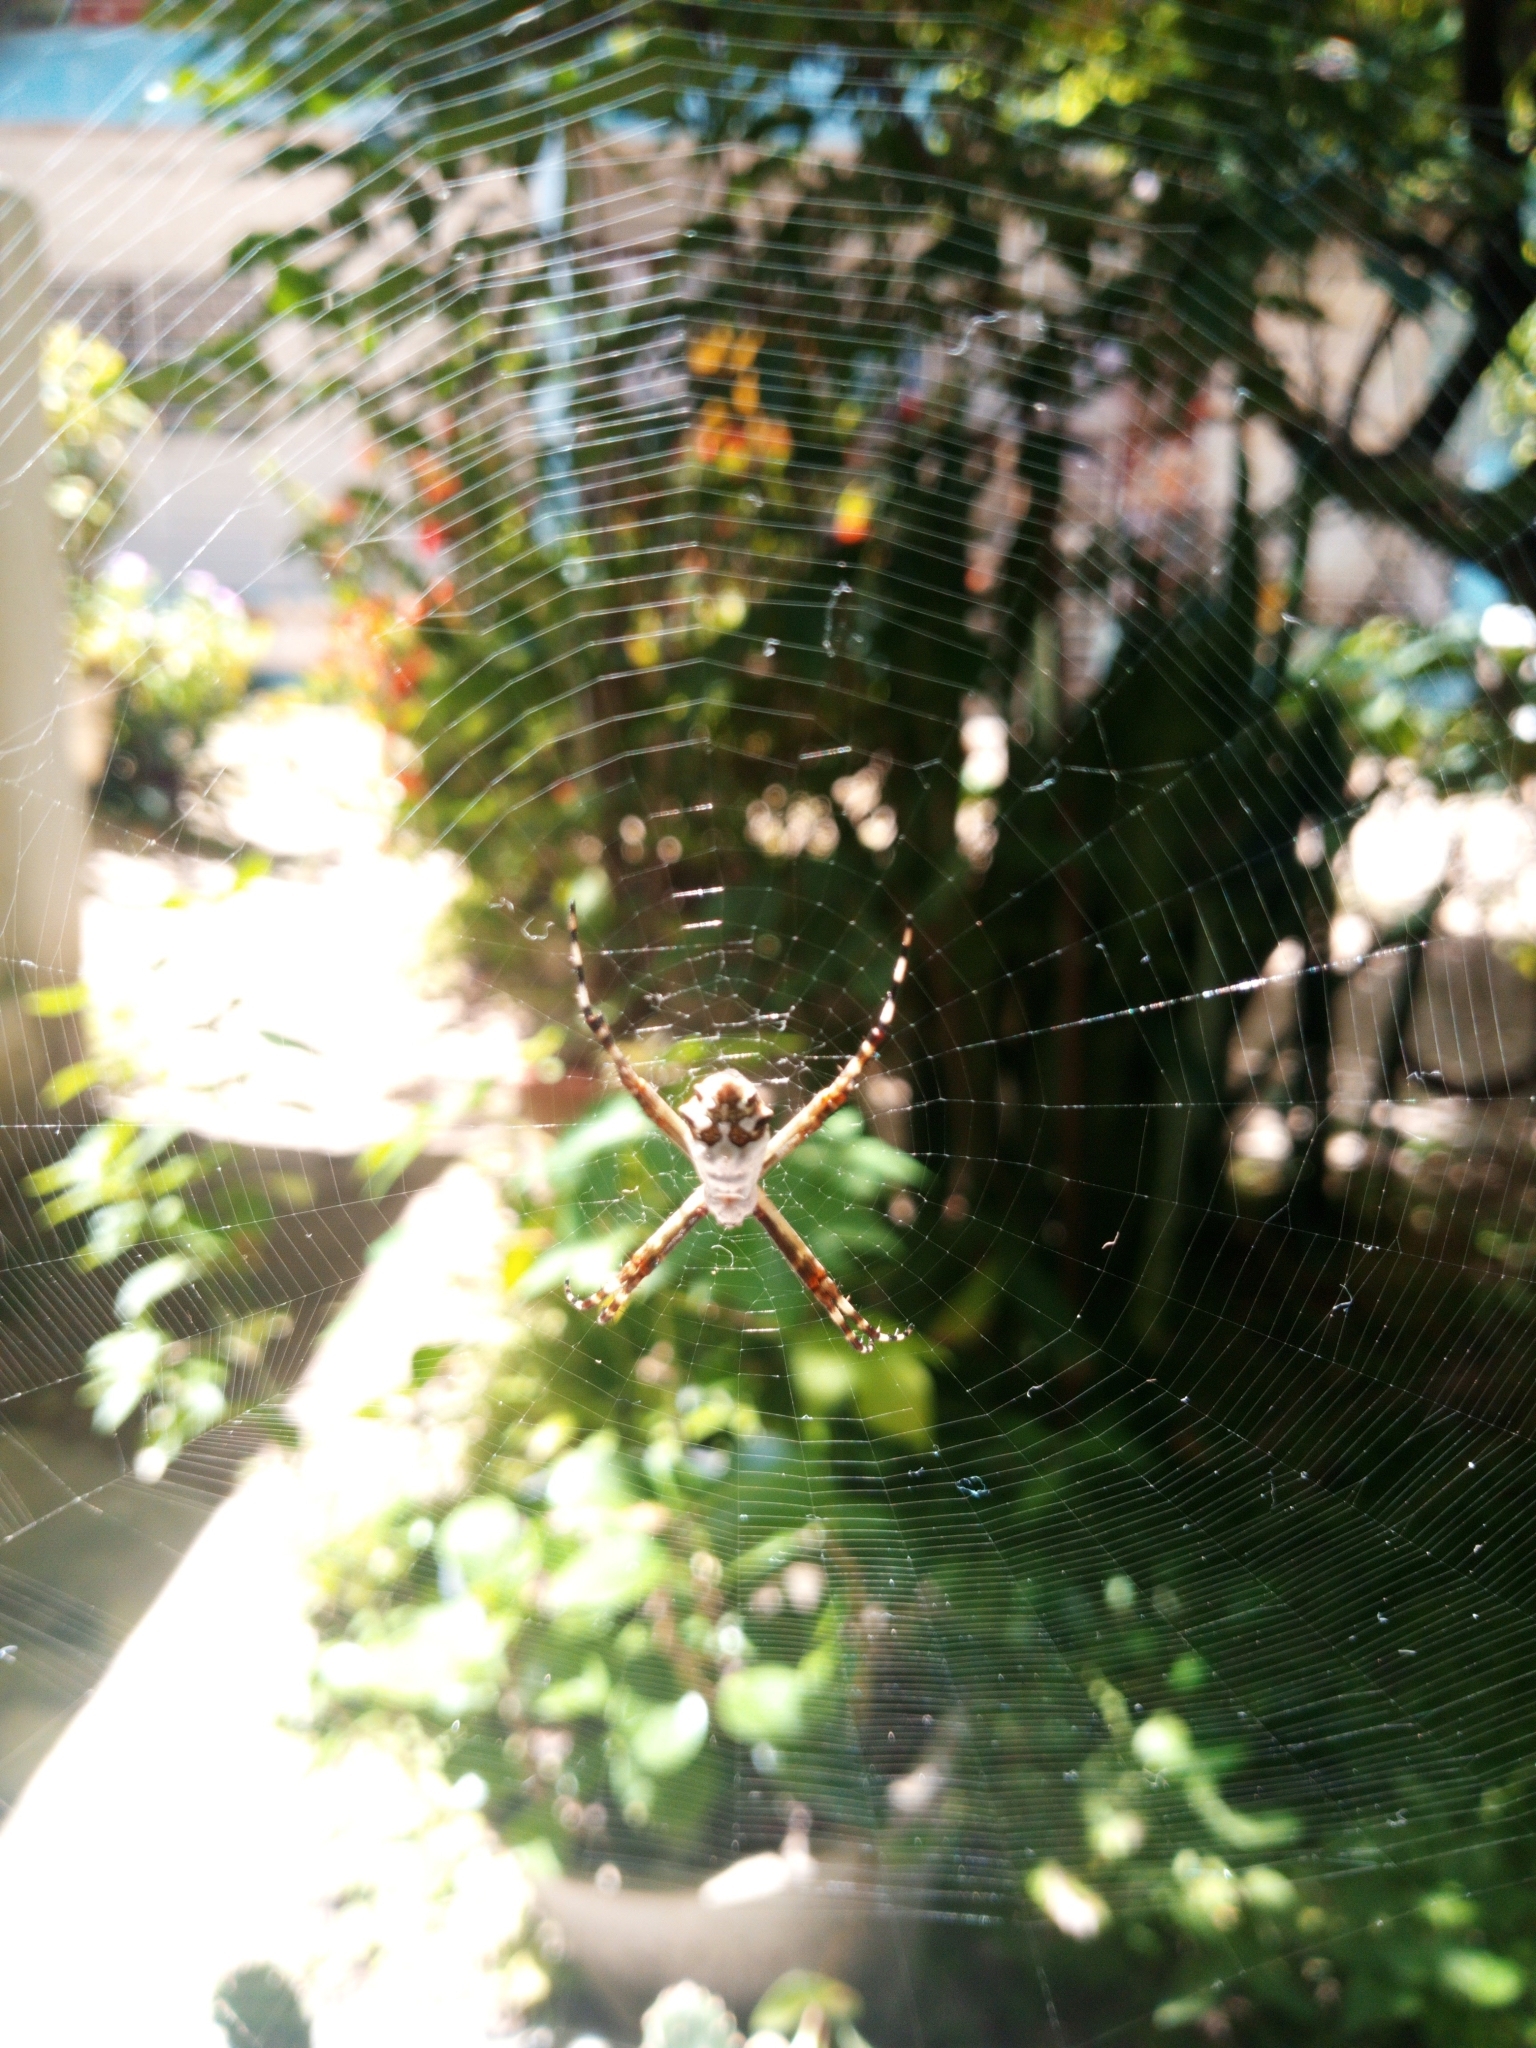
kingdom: Animalia
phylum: Arthropoda
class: Arachnida
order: Araneae
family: Araneidae
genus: Argiope
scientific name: Argiope argentata
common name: Orb weavers
